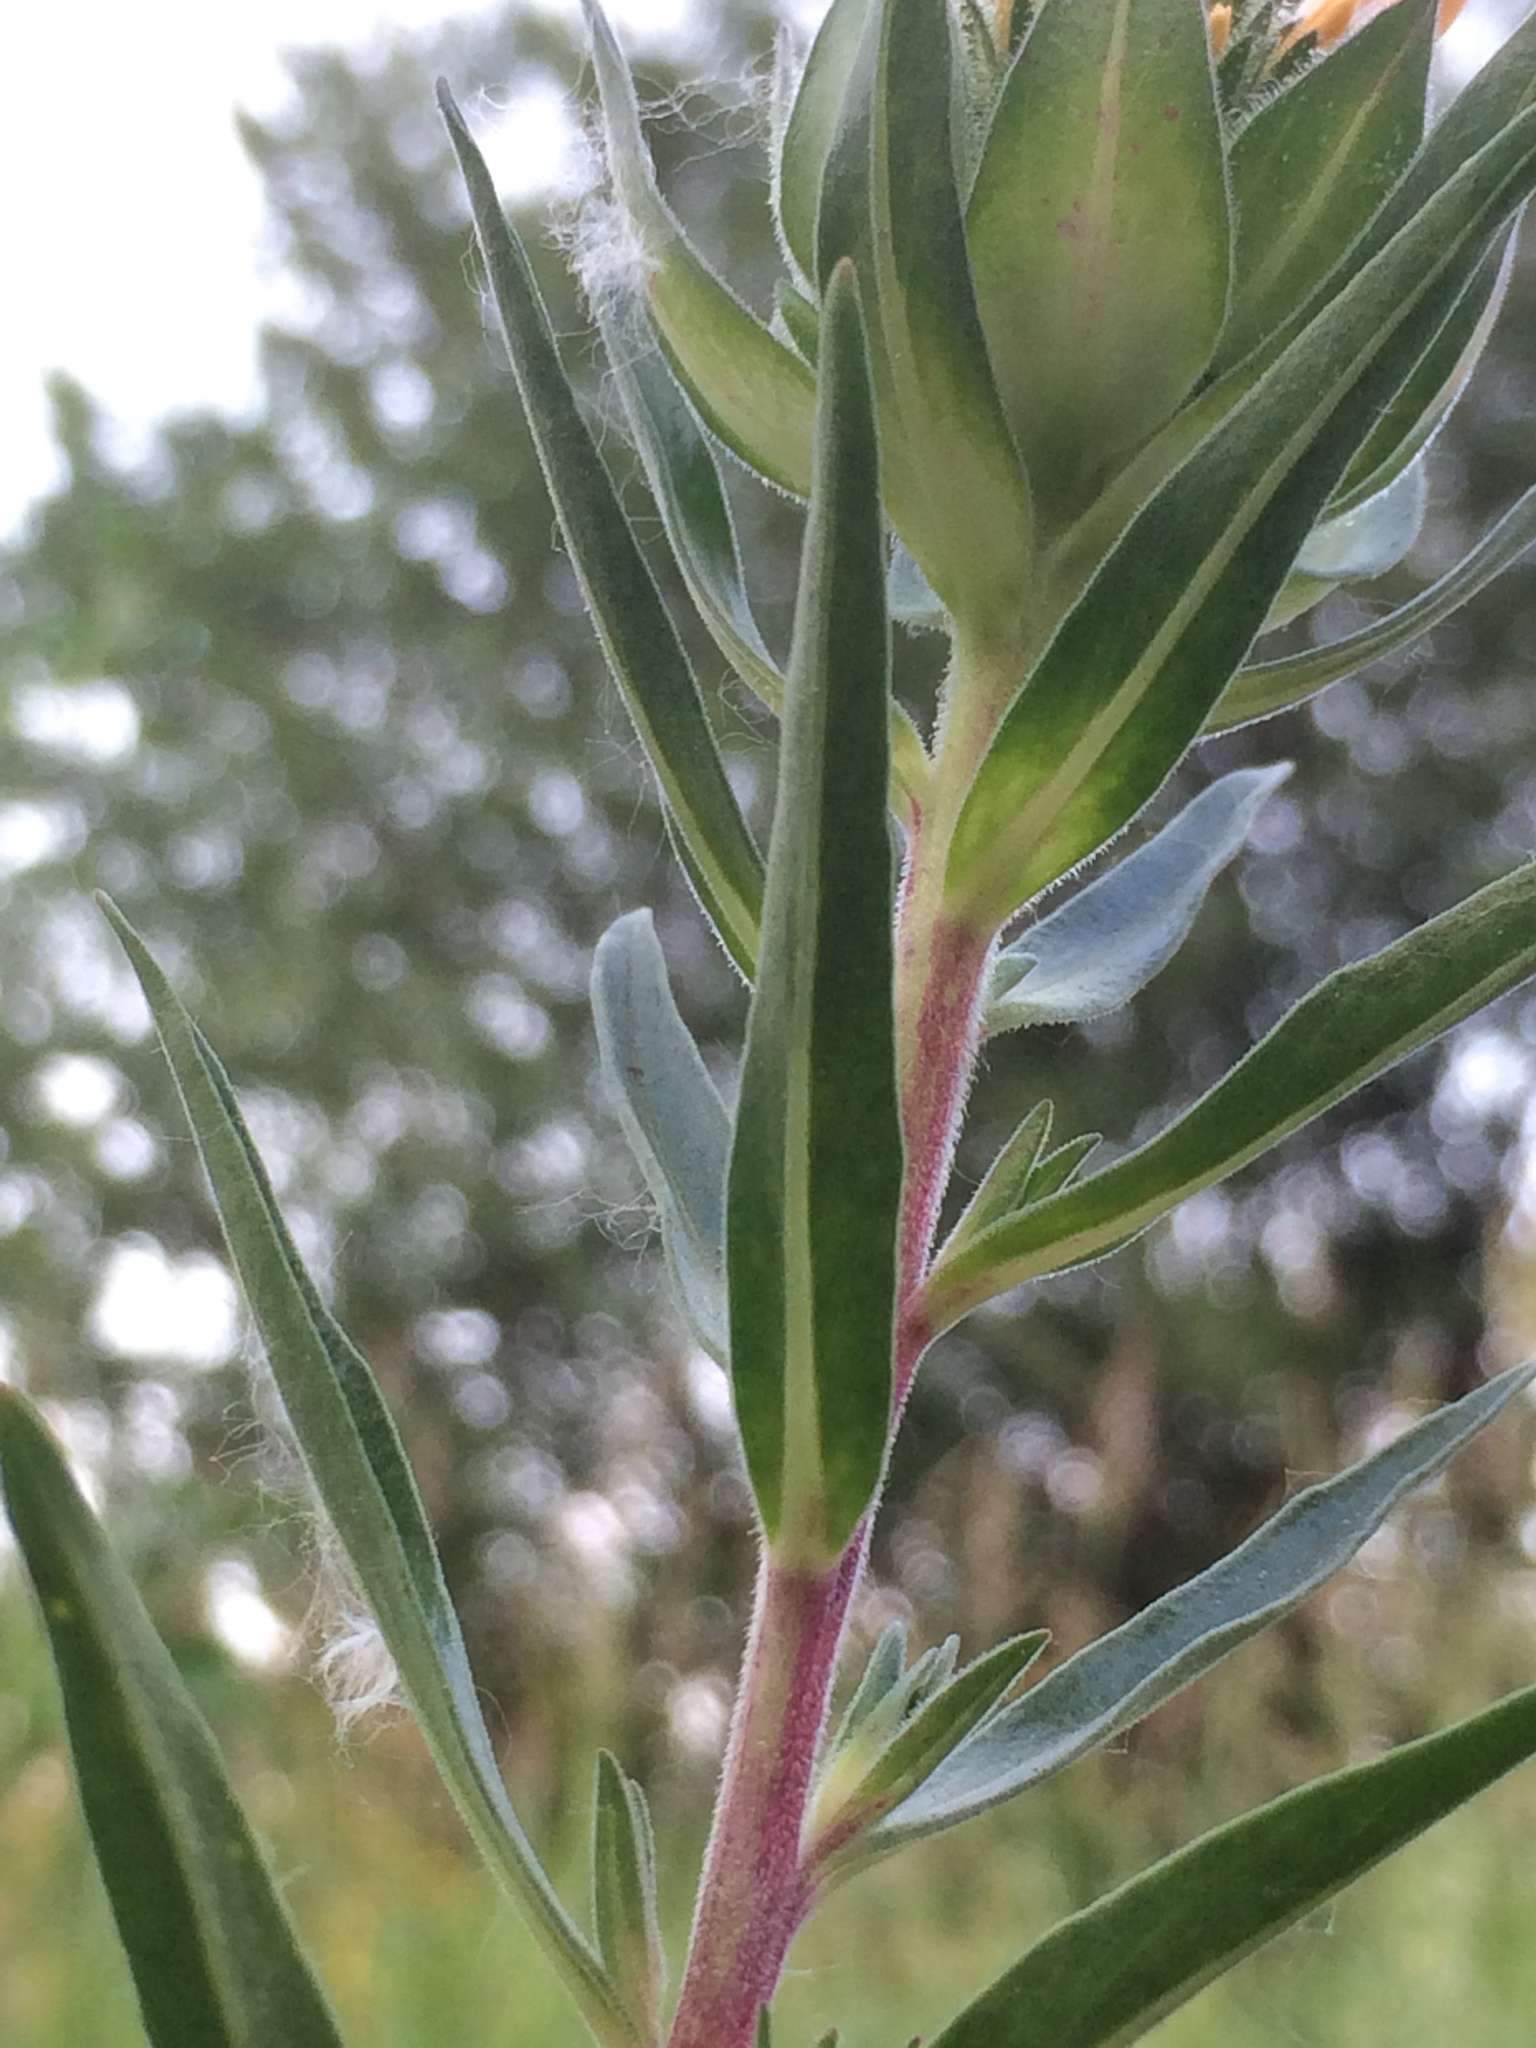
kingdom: Plantae
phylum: Tracheophyta
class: Magnoliopsida
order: Ericales
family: Polemoniaceae
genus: Collomia
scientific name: Collomia grandiflora
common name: California strawflower
